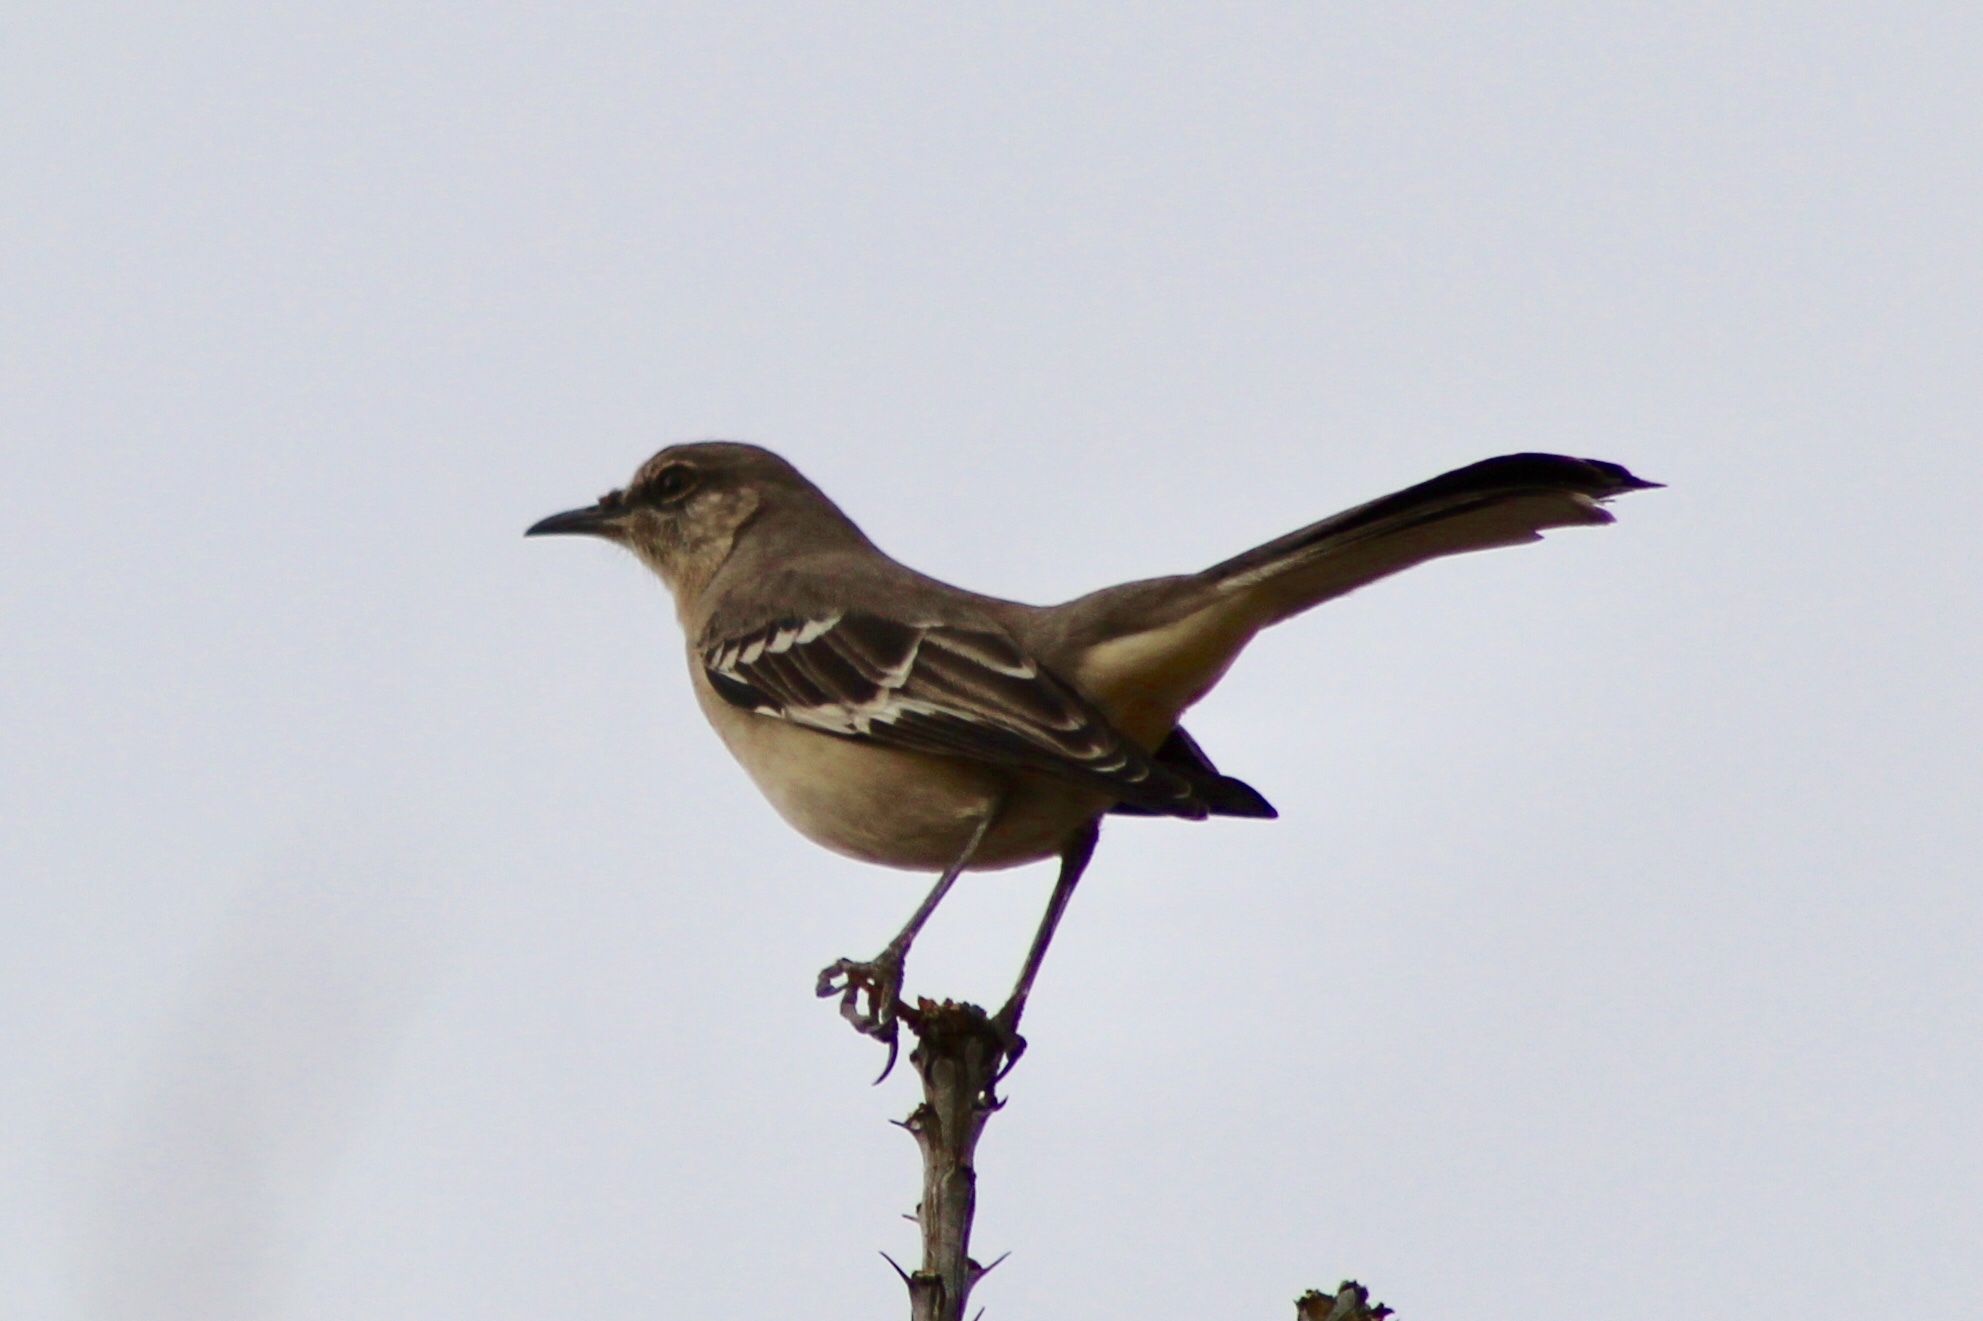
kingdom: Animalia
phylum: Chordata
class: Aves
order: Passeriformes
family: Mimidae
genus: Mimus
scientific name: Mimus polyglottos
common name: Northern mockingbird
